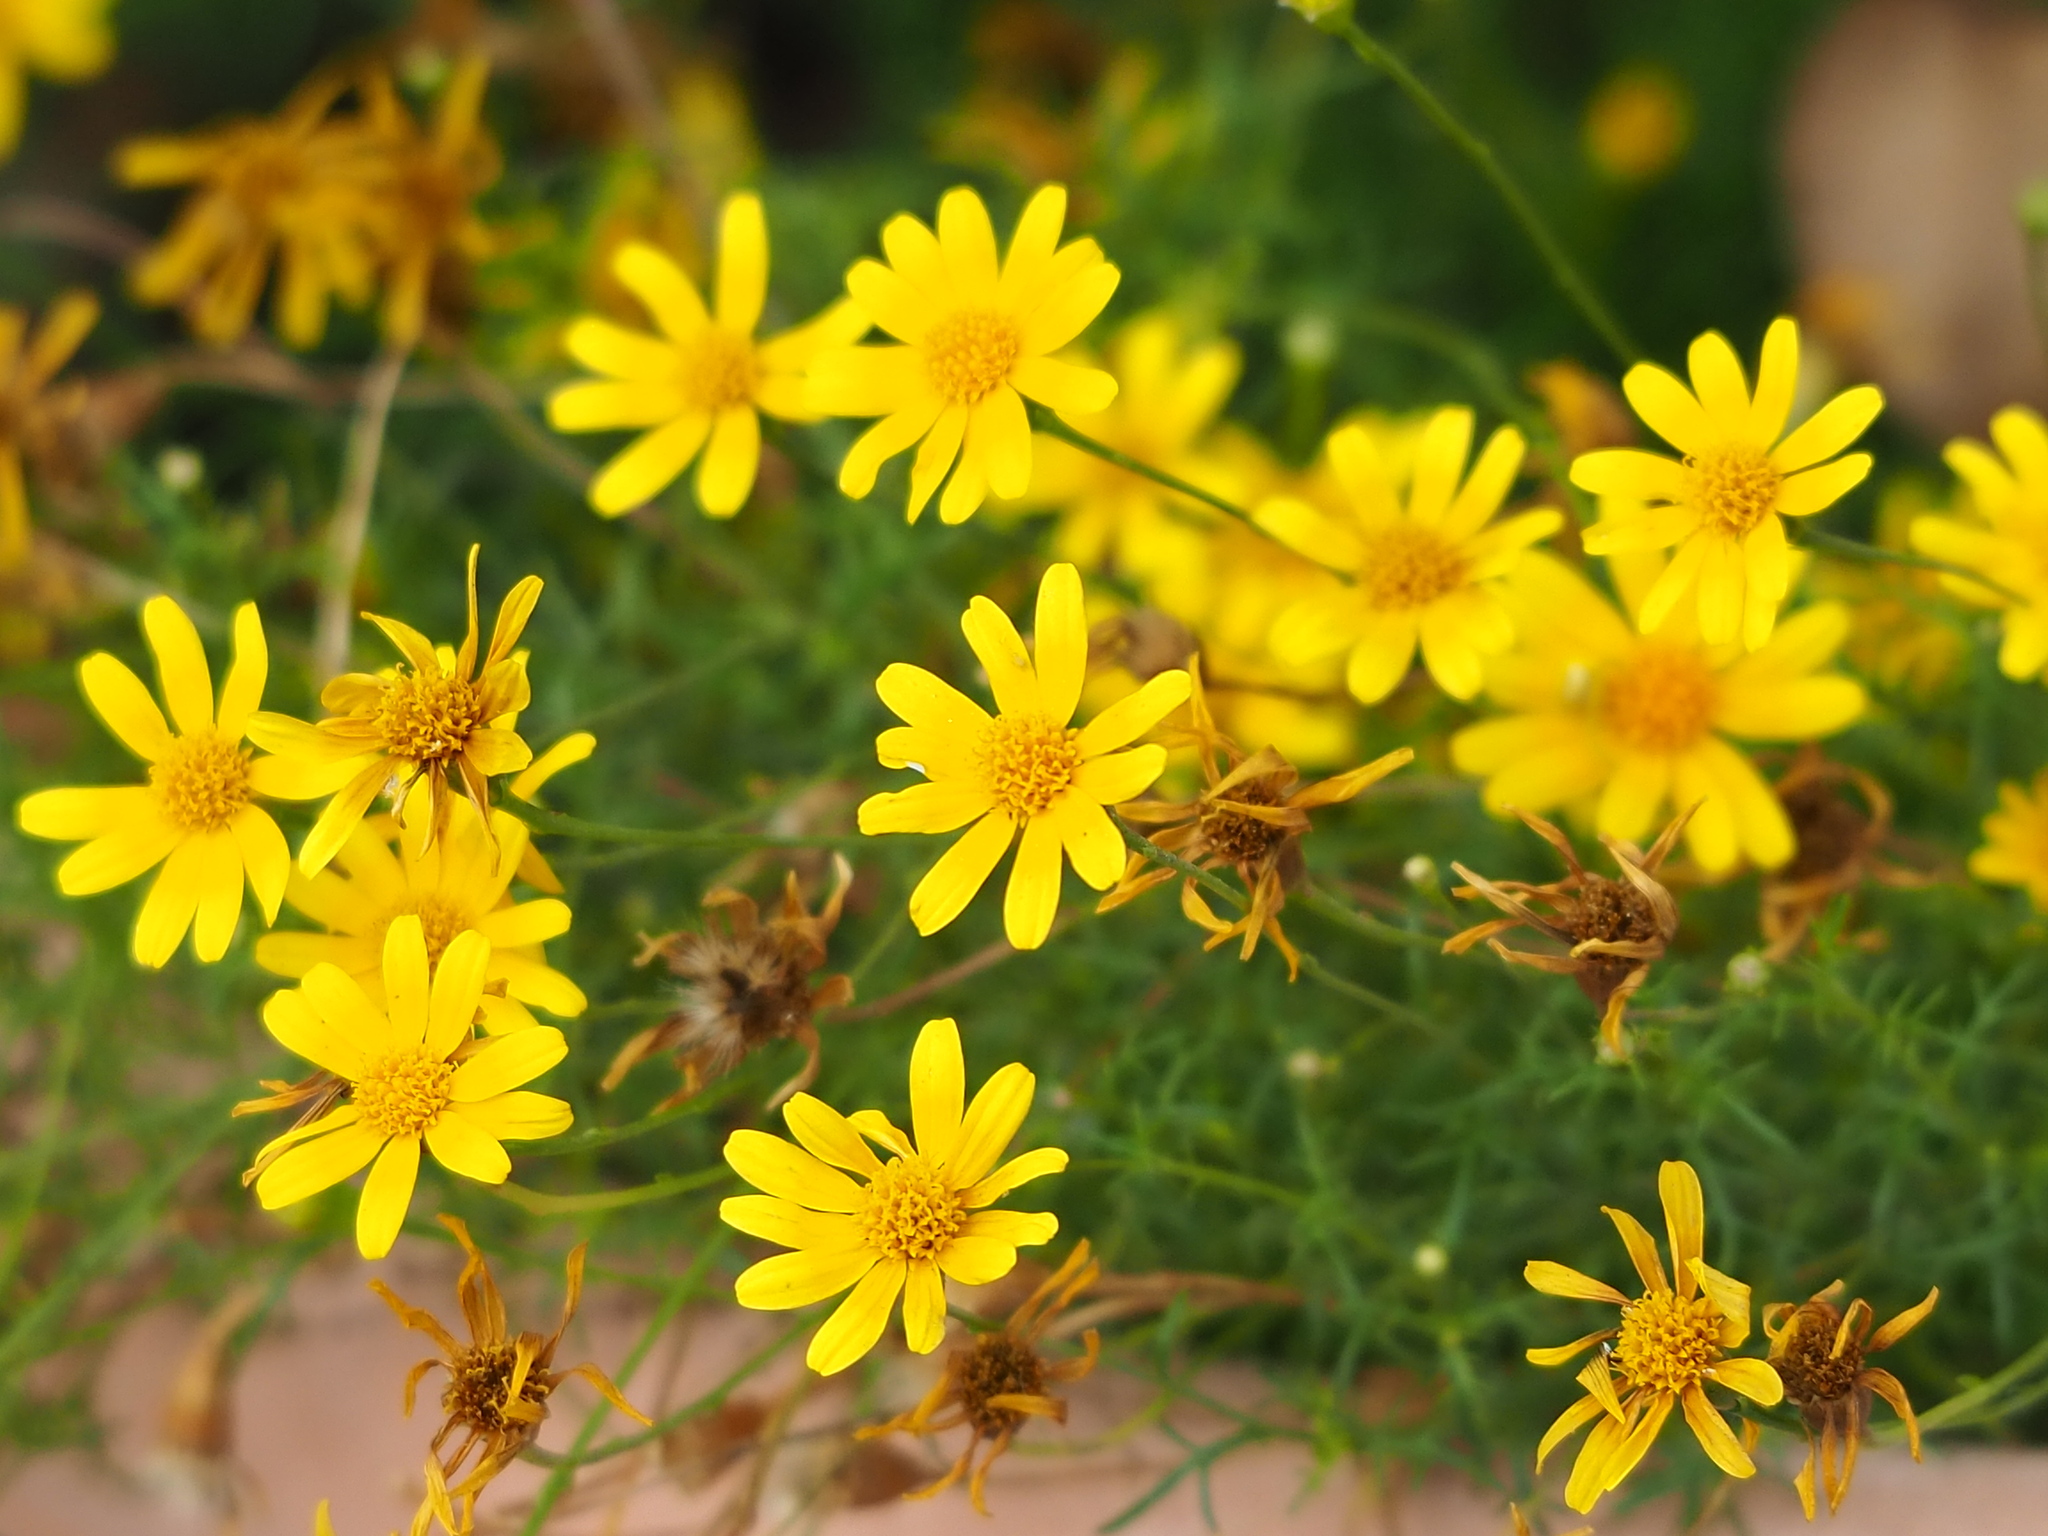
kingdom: Plantae
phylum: Tracheophyta
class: Magnoliopsida
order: Asterales
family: Asteraceae
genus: Thymophylla
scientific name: Thymophylla tenuiloba
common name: Dahlberg's daisy
